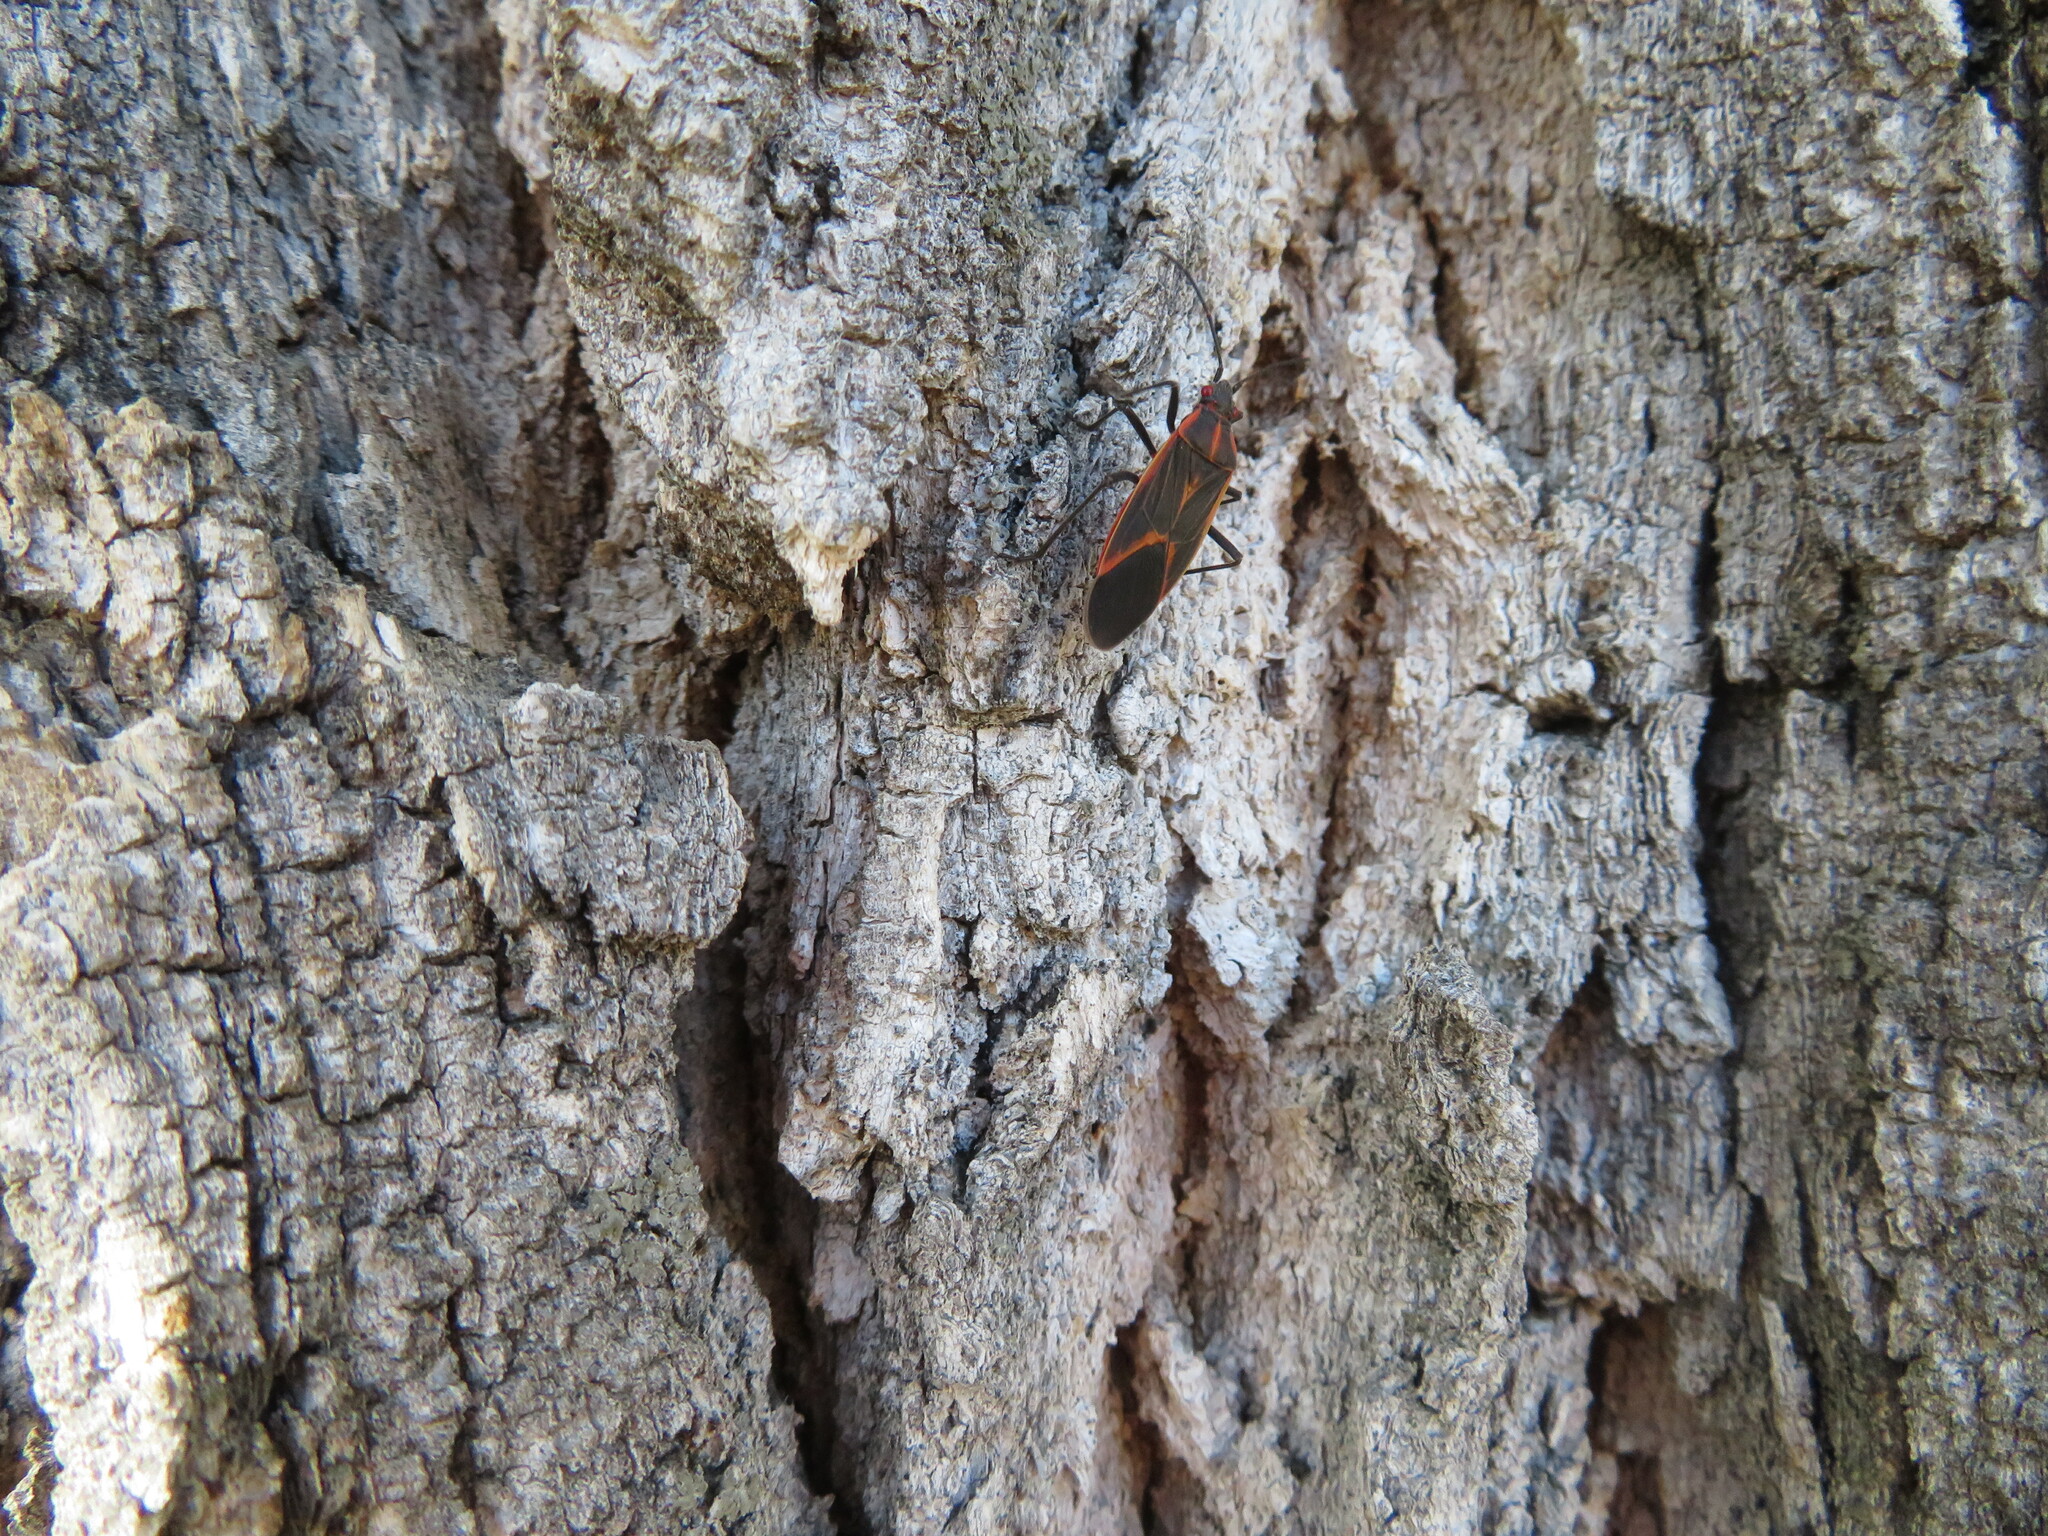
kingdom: Animalia
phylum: Arthropoda
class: Insecta
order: Hemiptera
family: Rhopalidae
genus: Boisea
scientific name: Boisea trivittata
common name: Boxelder bug
